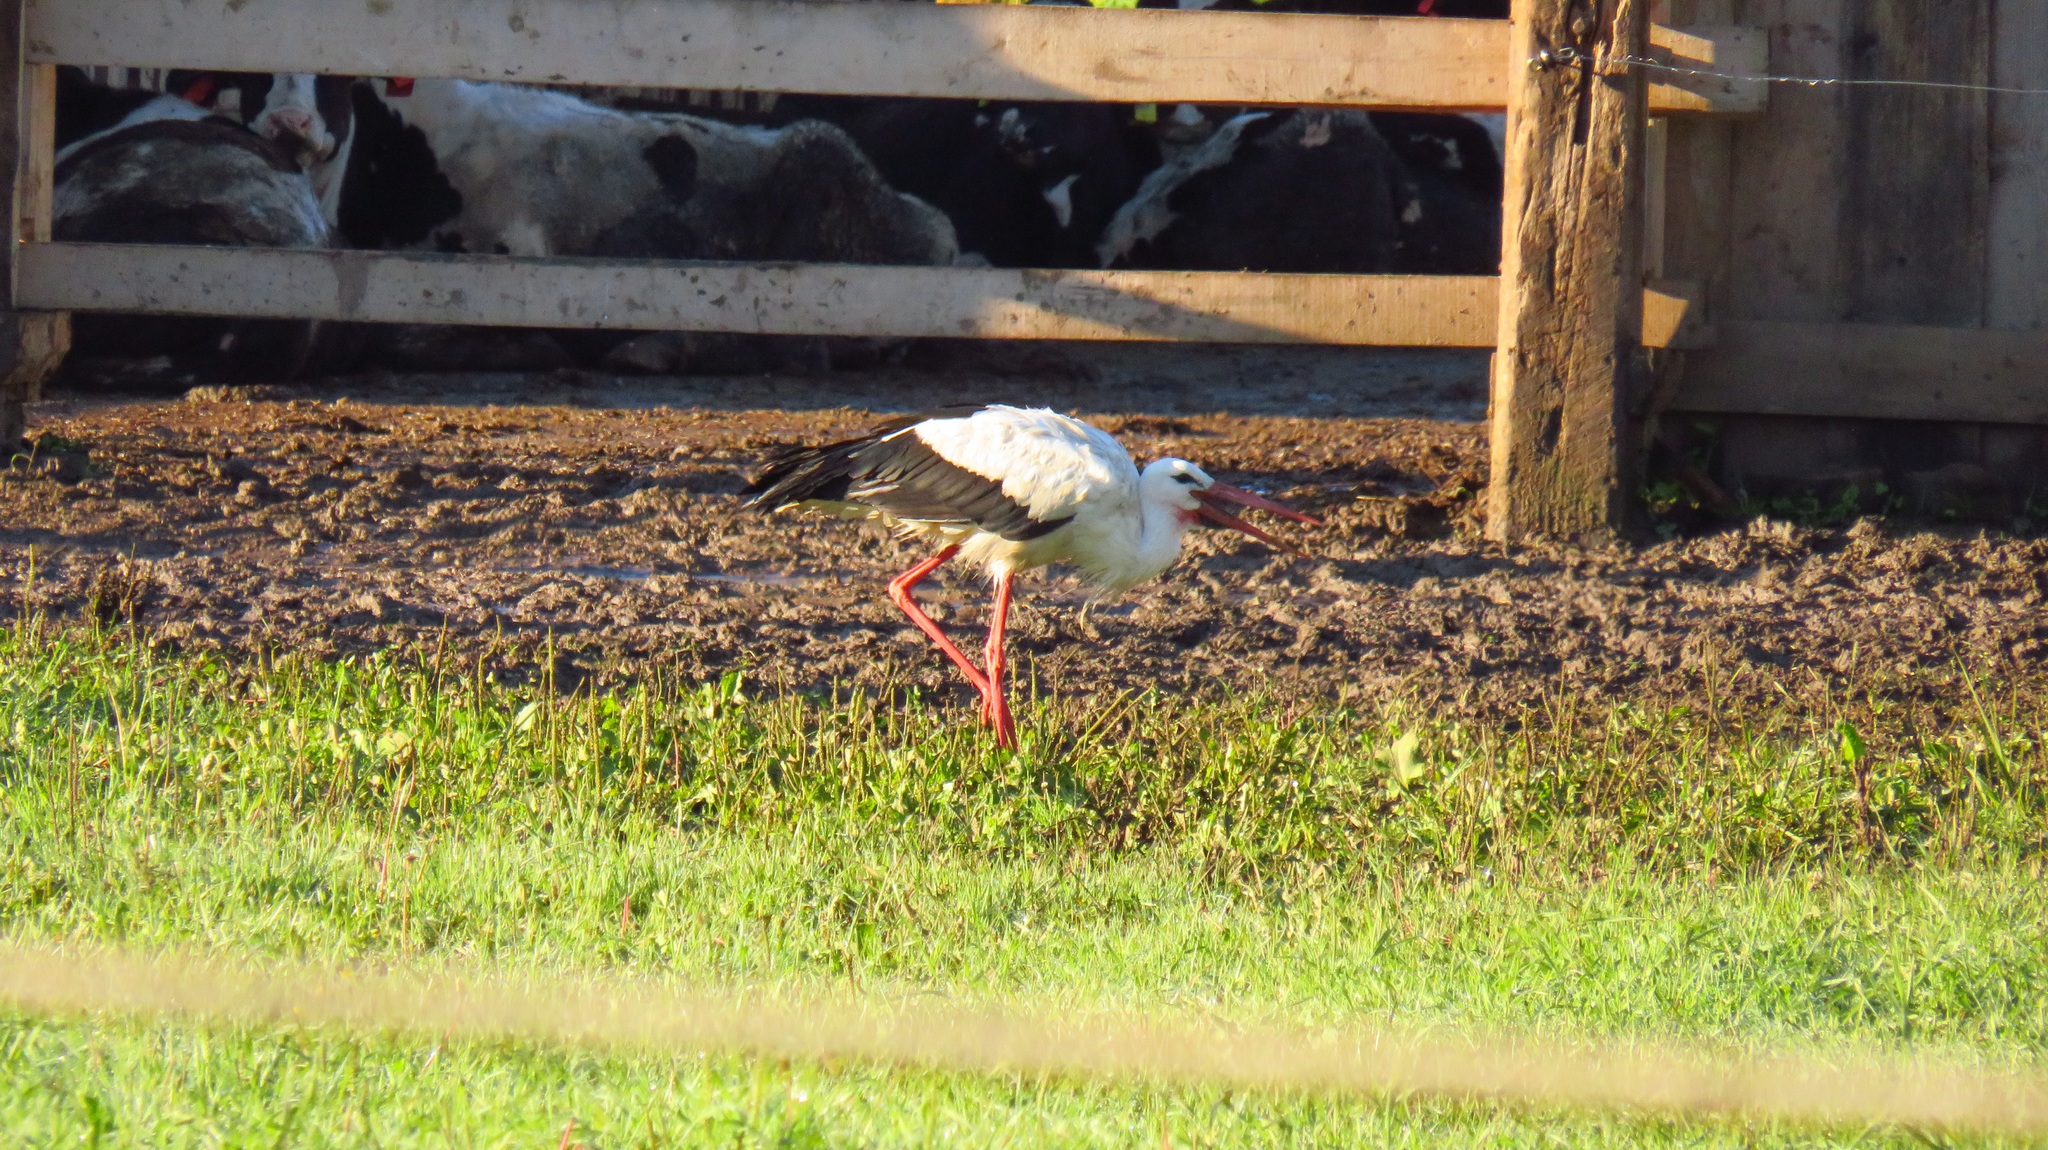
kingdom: Animalia
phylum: Chordata
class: Aves
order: Ciconiiformes
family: Ciconiidae
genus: Ciconia
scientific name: Ciconia ciconia
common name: White stork
